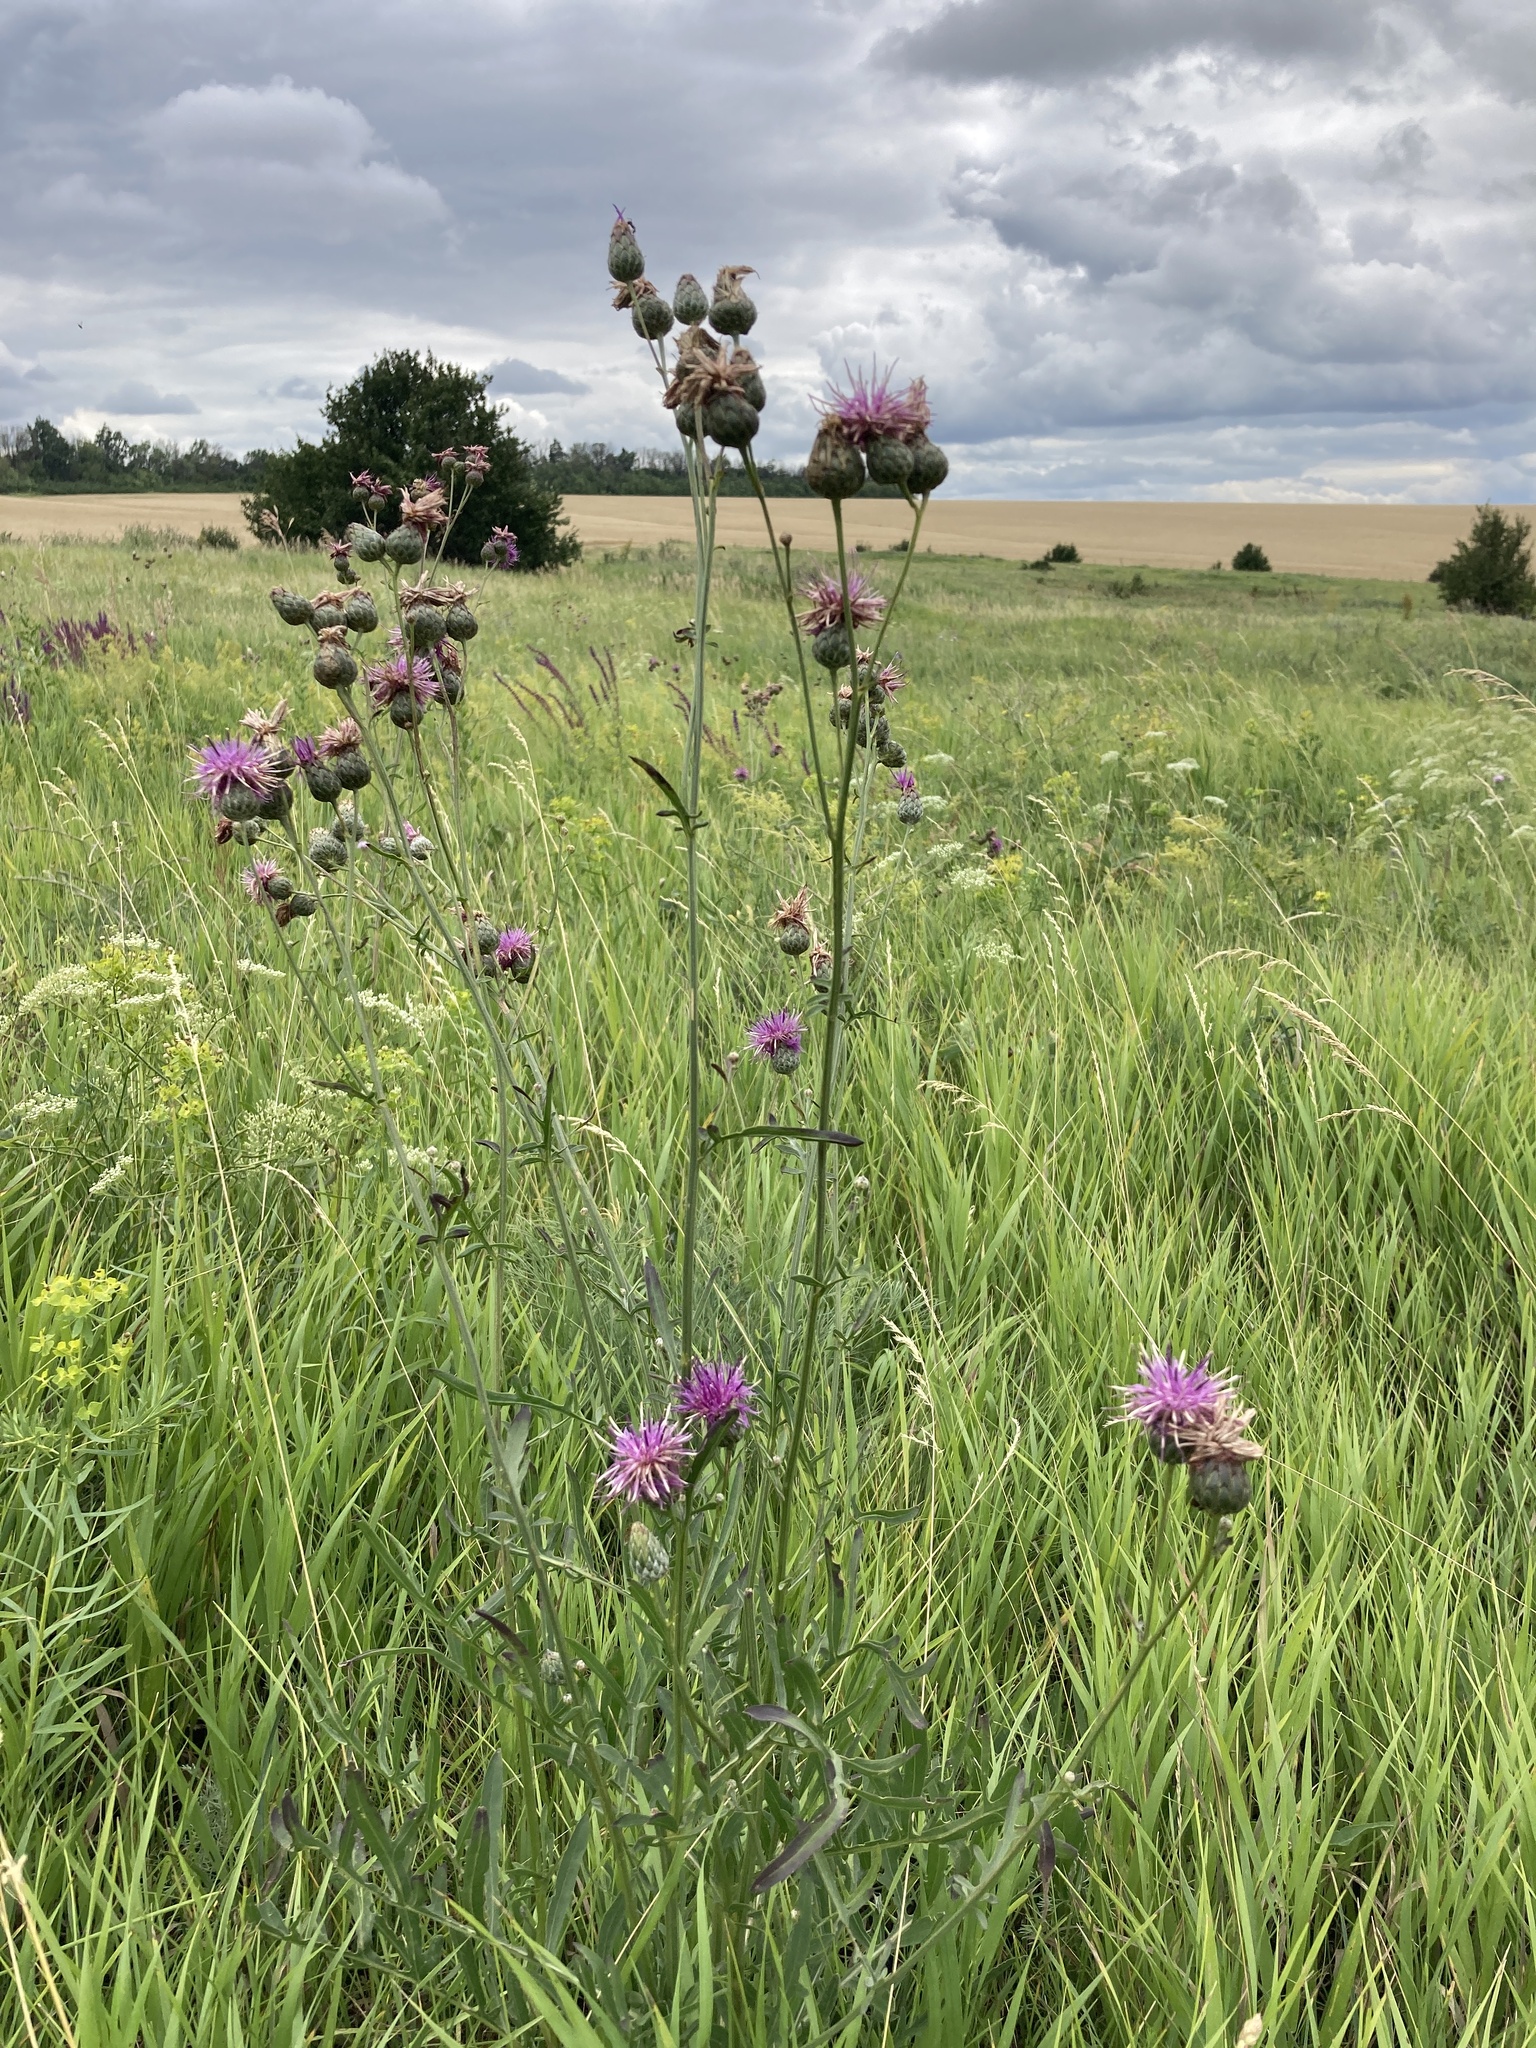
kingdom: Plantae
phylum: Tracheophyta
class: Magnoliopsida
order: Asterales
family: Asteraceae
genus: Centaurea
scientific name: Centaurea scabiosa
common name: Greater knapweed
